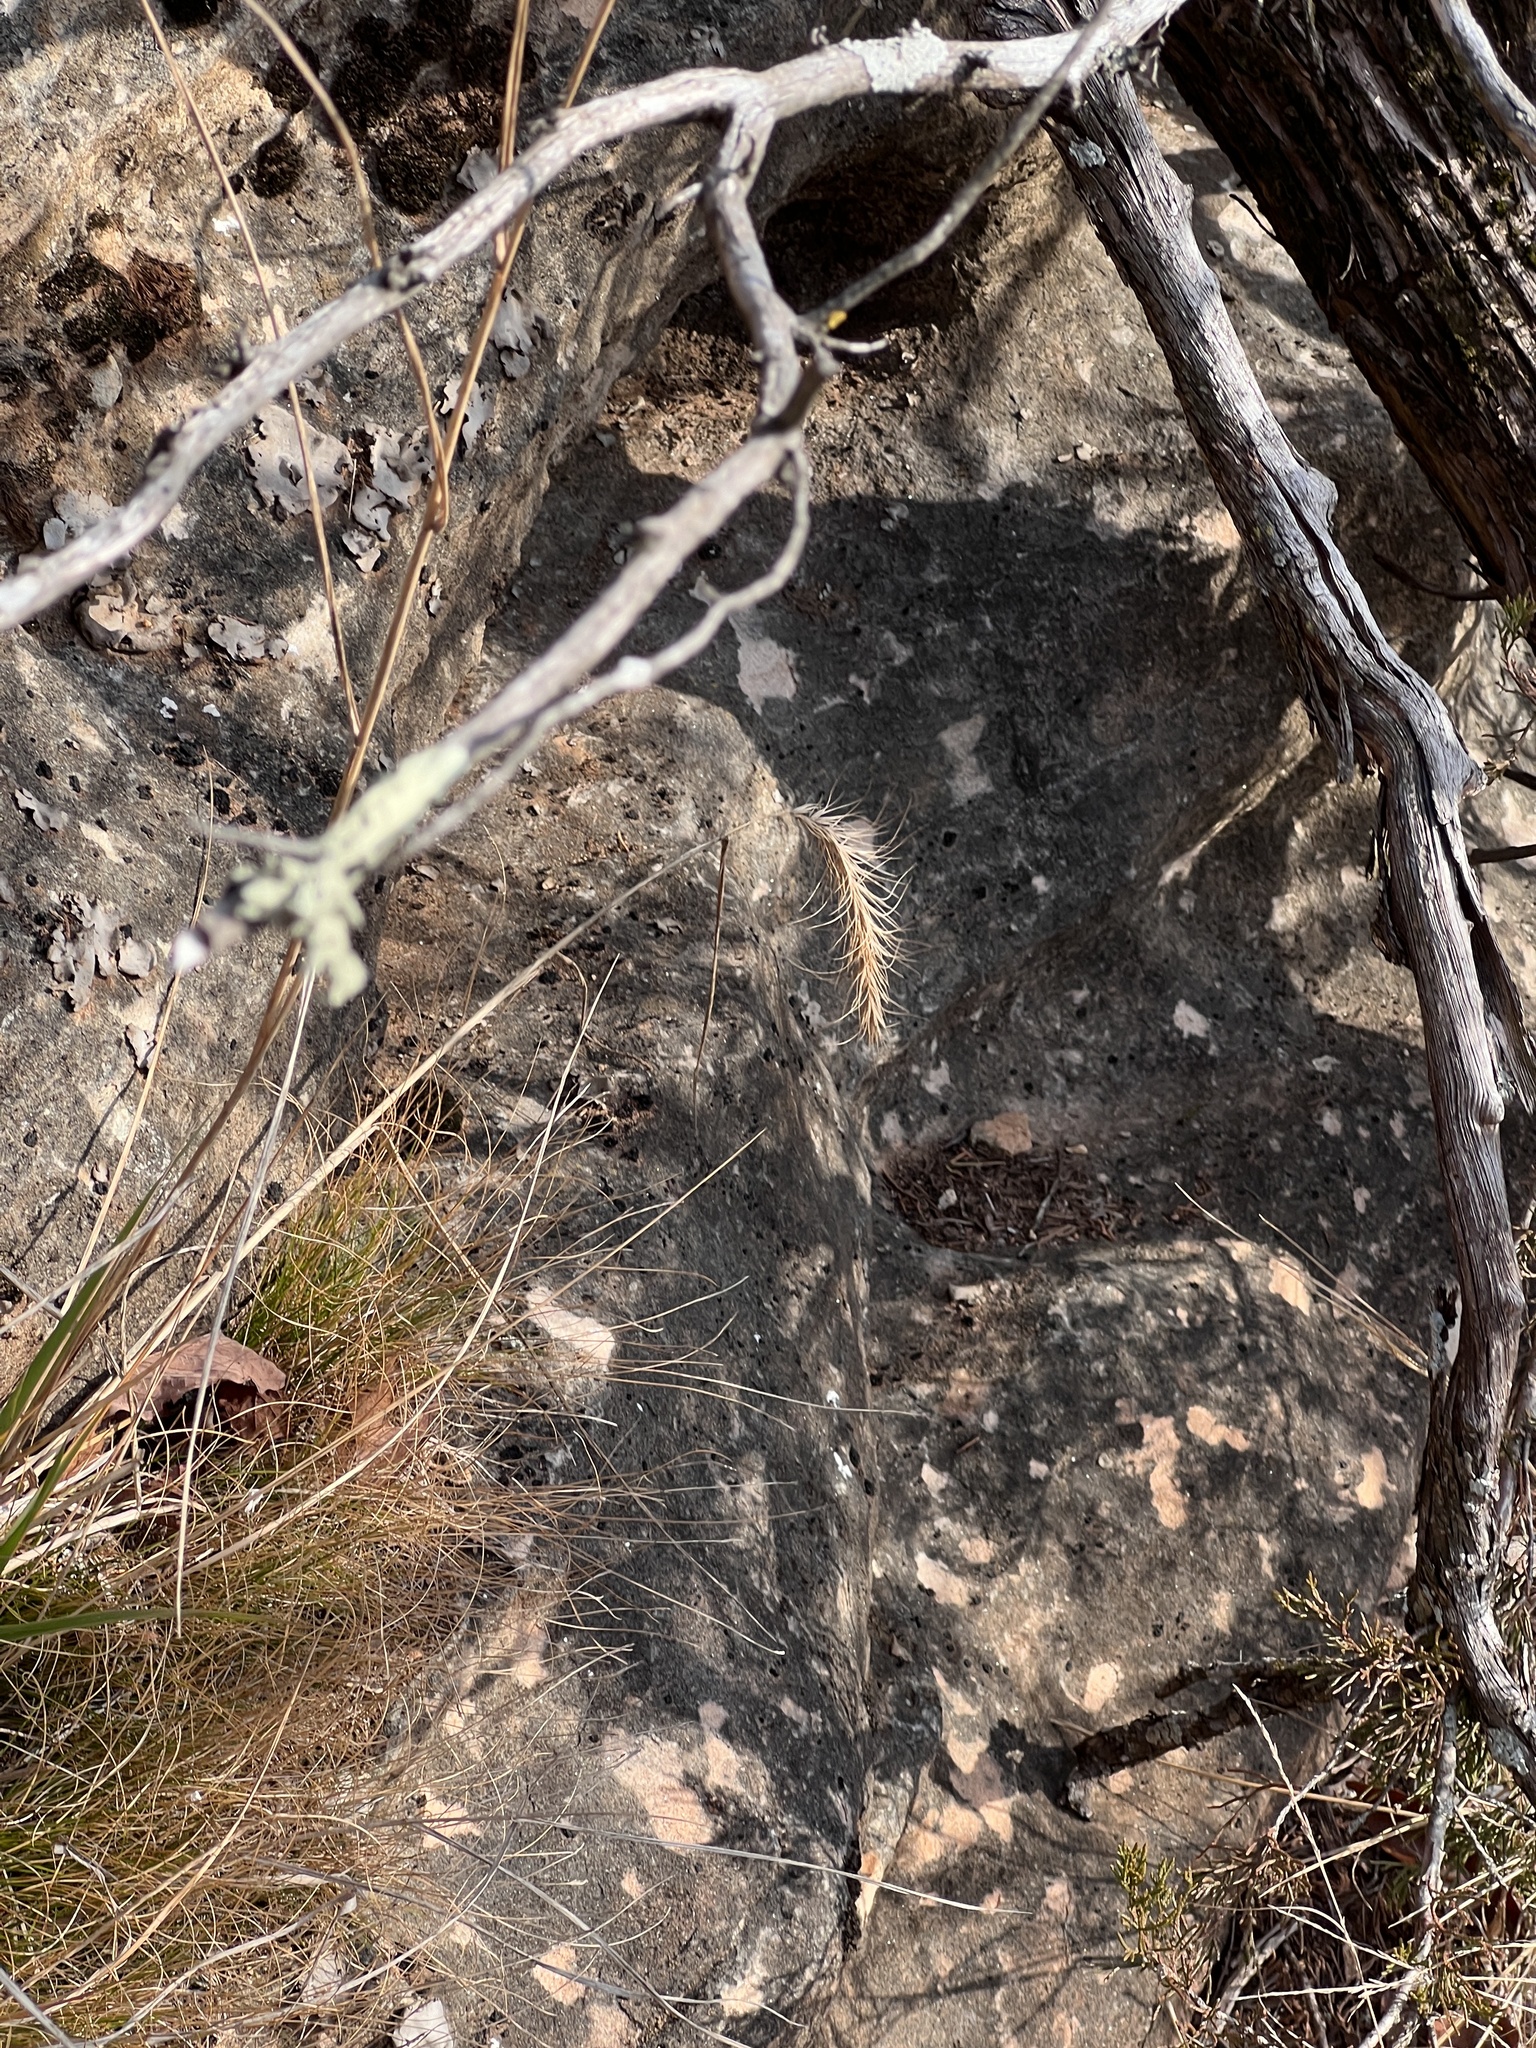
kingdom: Plantae
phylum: Tracheophyta
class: Liliopsida
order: Poales
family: Poaceae
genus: Elymus
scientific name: Elymus canadensis
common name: Canada wild rye
